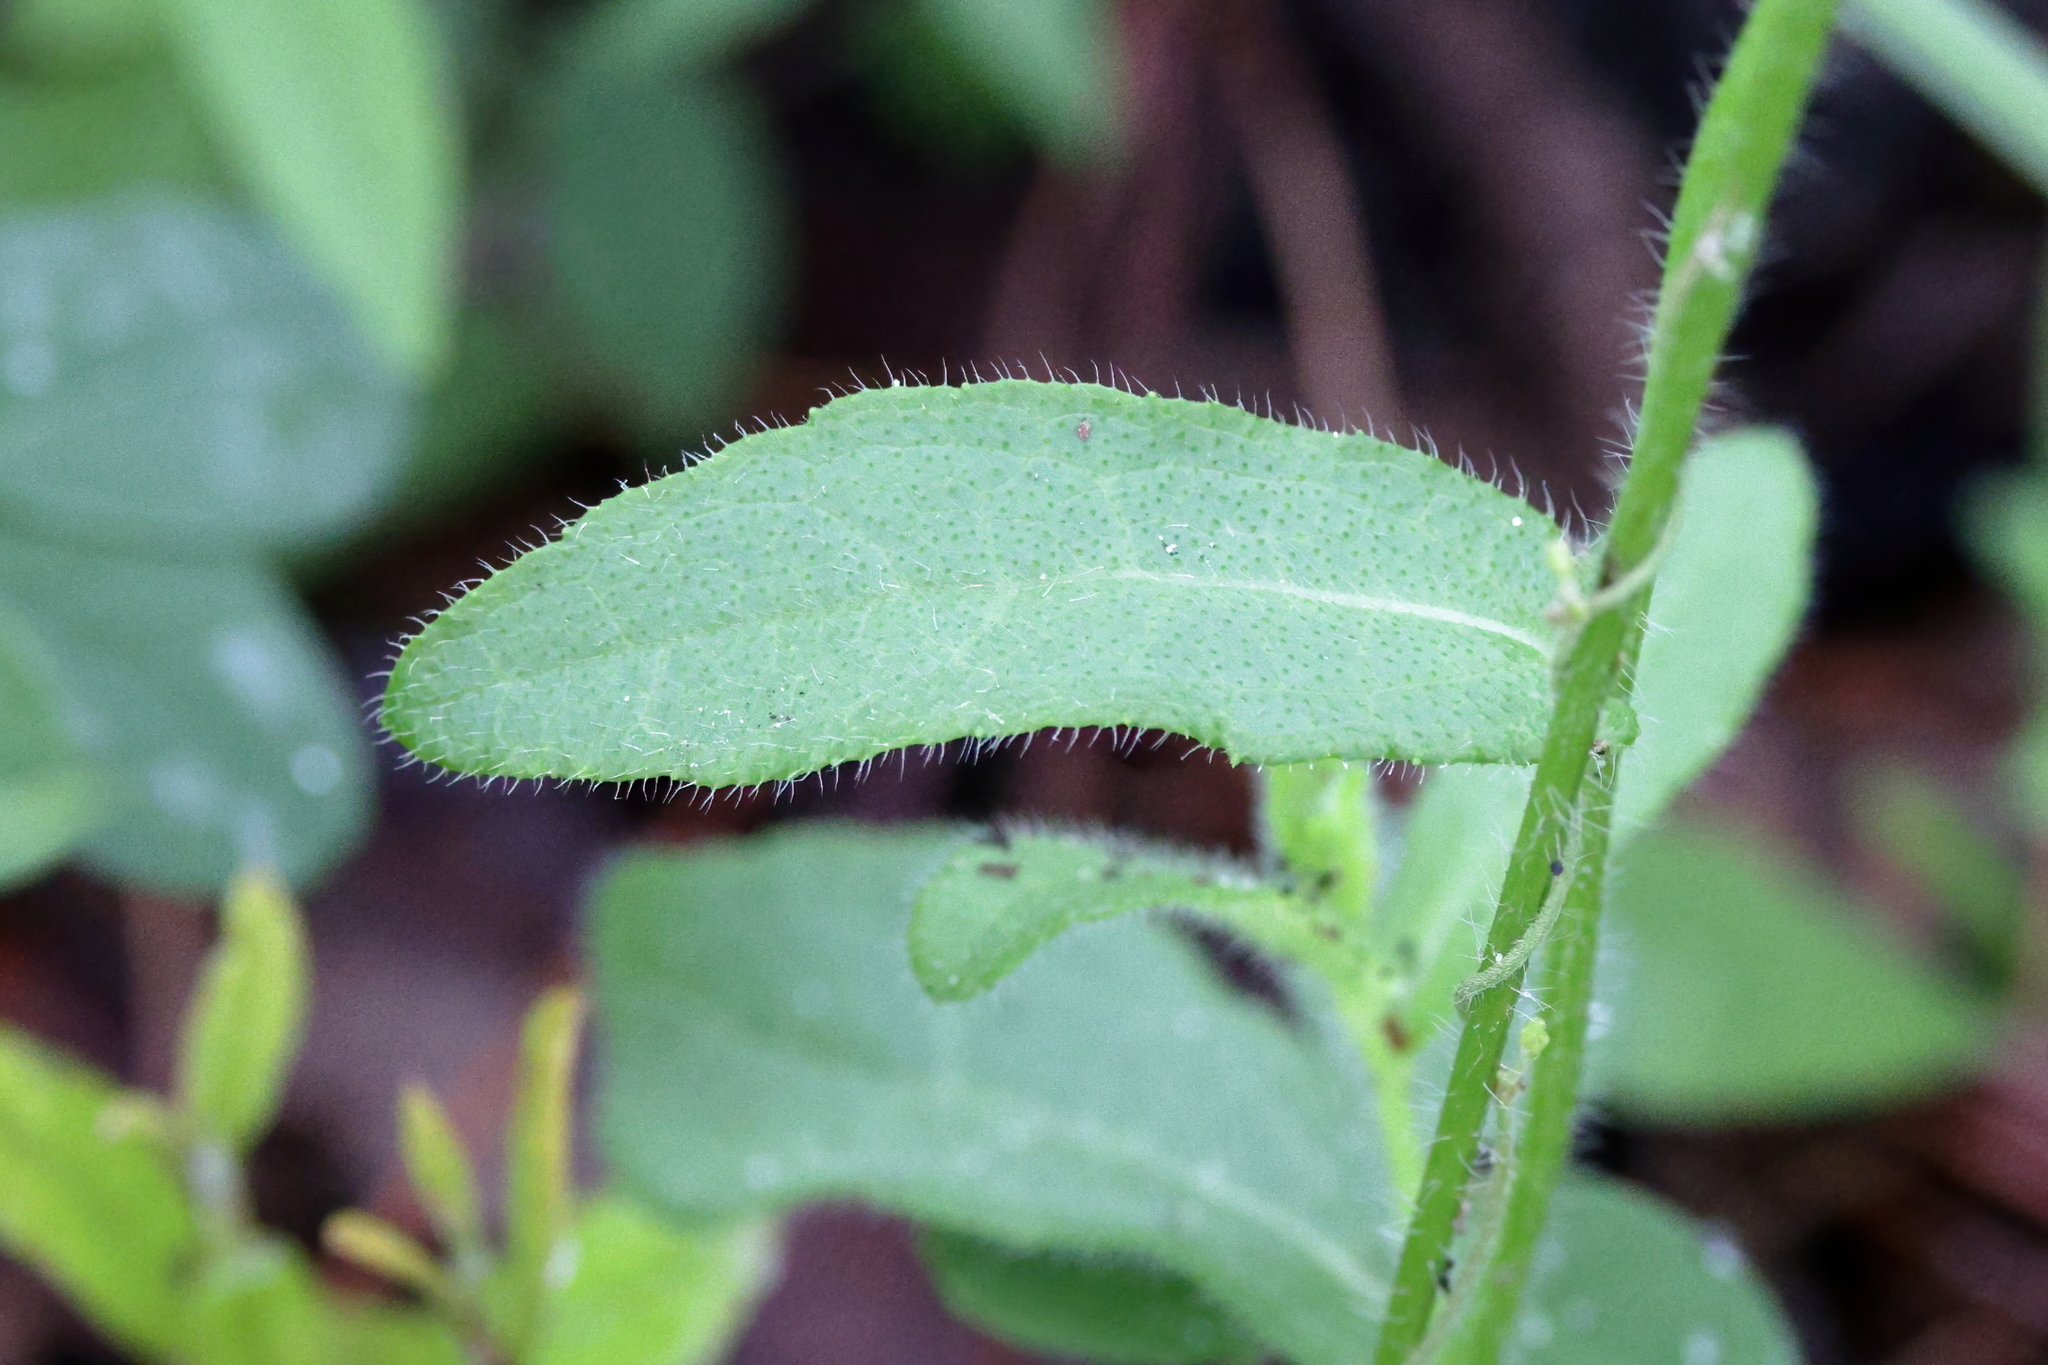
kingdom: Plantae
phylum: Tracheophyta
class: Magnoliopsida
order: Asterales
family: Asteraceae
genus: Rudbeckia
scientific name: Rudbeckia hirta
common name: Black-eyed-susan
